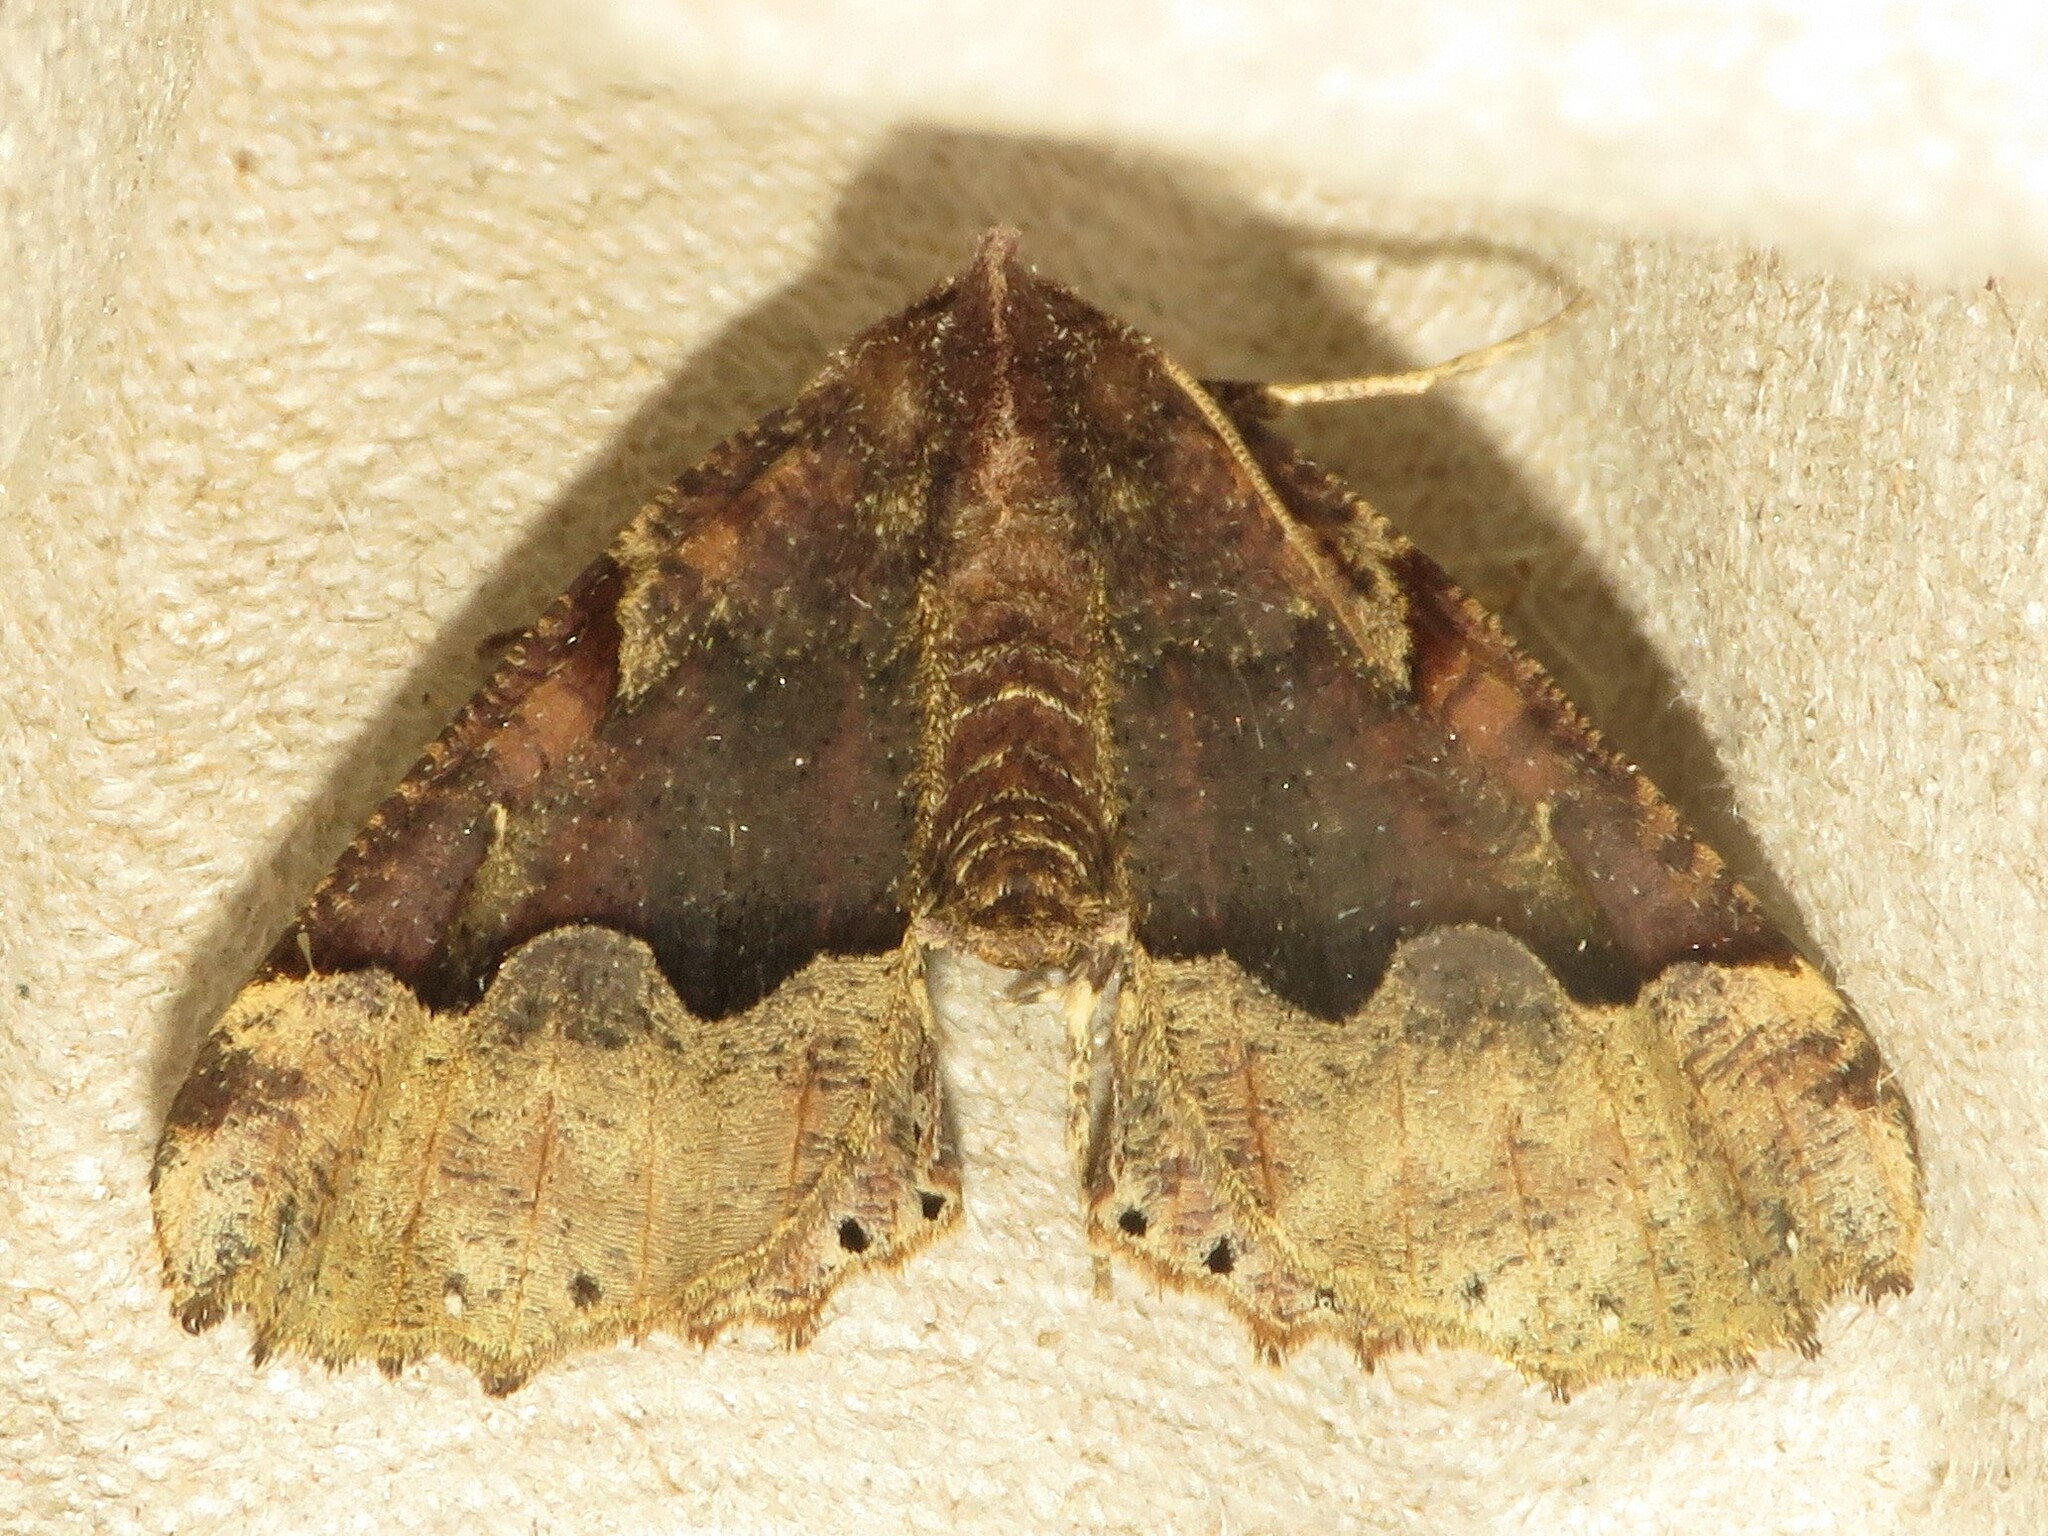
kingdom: Animalia
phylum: Arthropoda
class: Insecta
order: Lepidoptera
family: Geometridae
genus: Pero
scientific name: Pero ancetaria
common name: Hübner's pero
